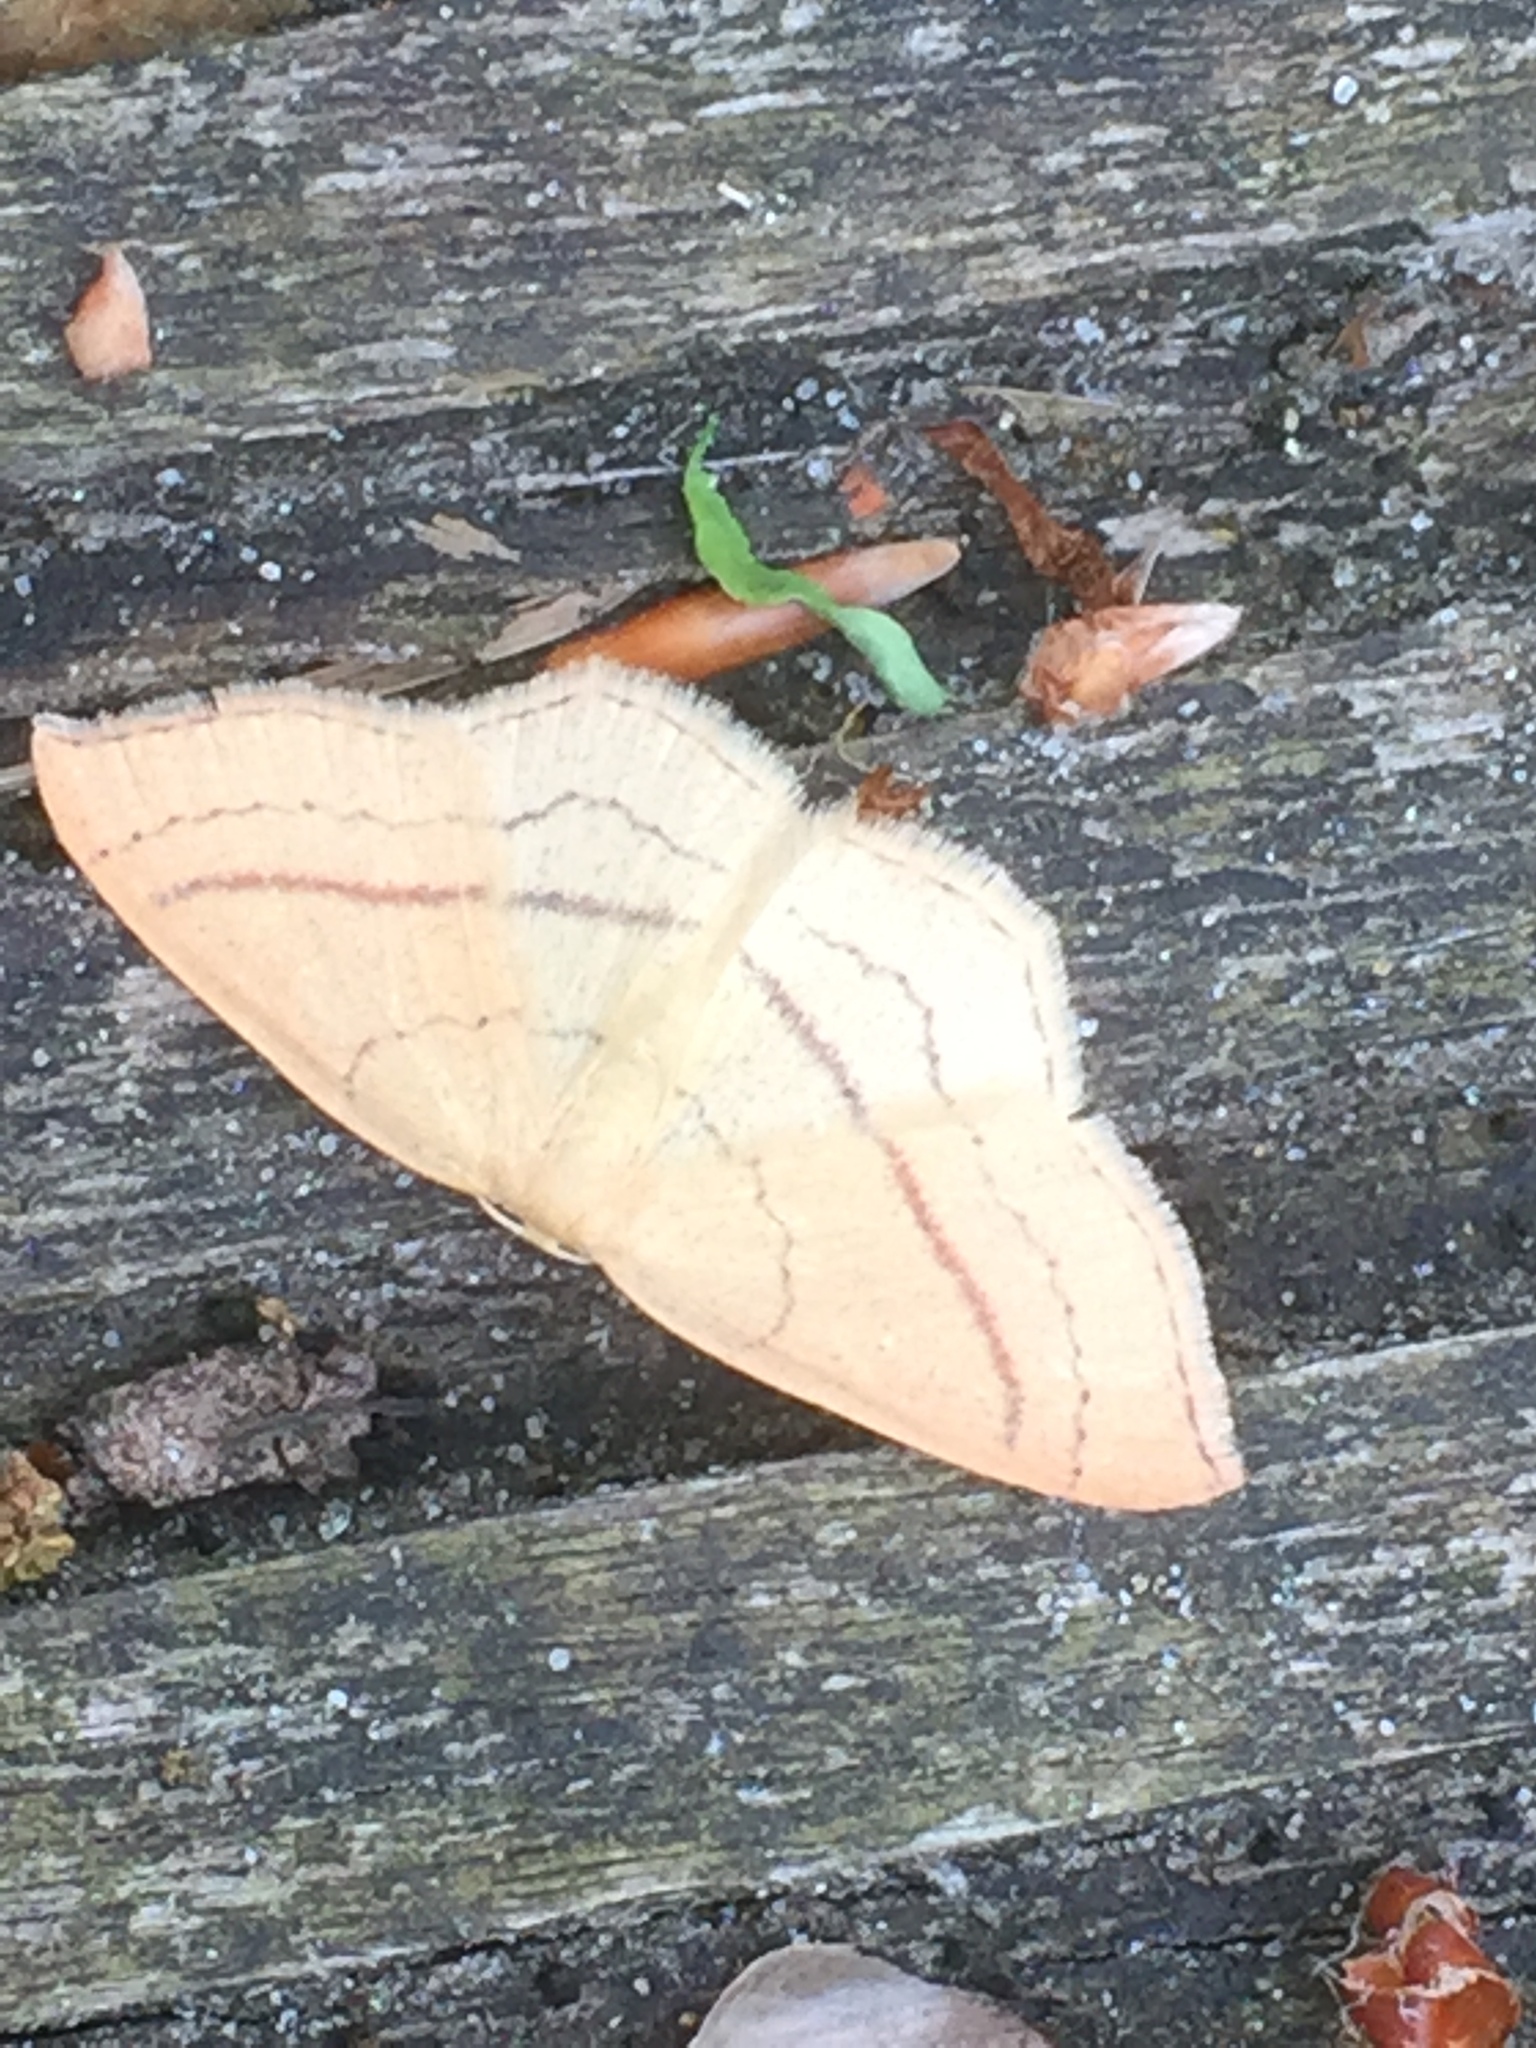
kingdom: Animalia
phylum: Arthropoda
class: Insecta
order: Lepidoptera
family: Geometridae
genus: Cyclophora
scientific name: Cyclophora linearia
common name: Clay triple-lines
